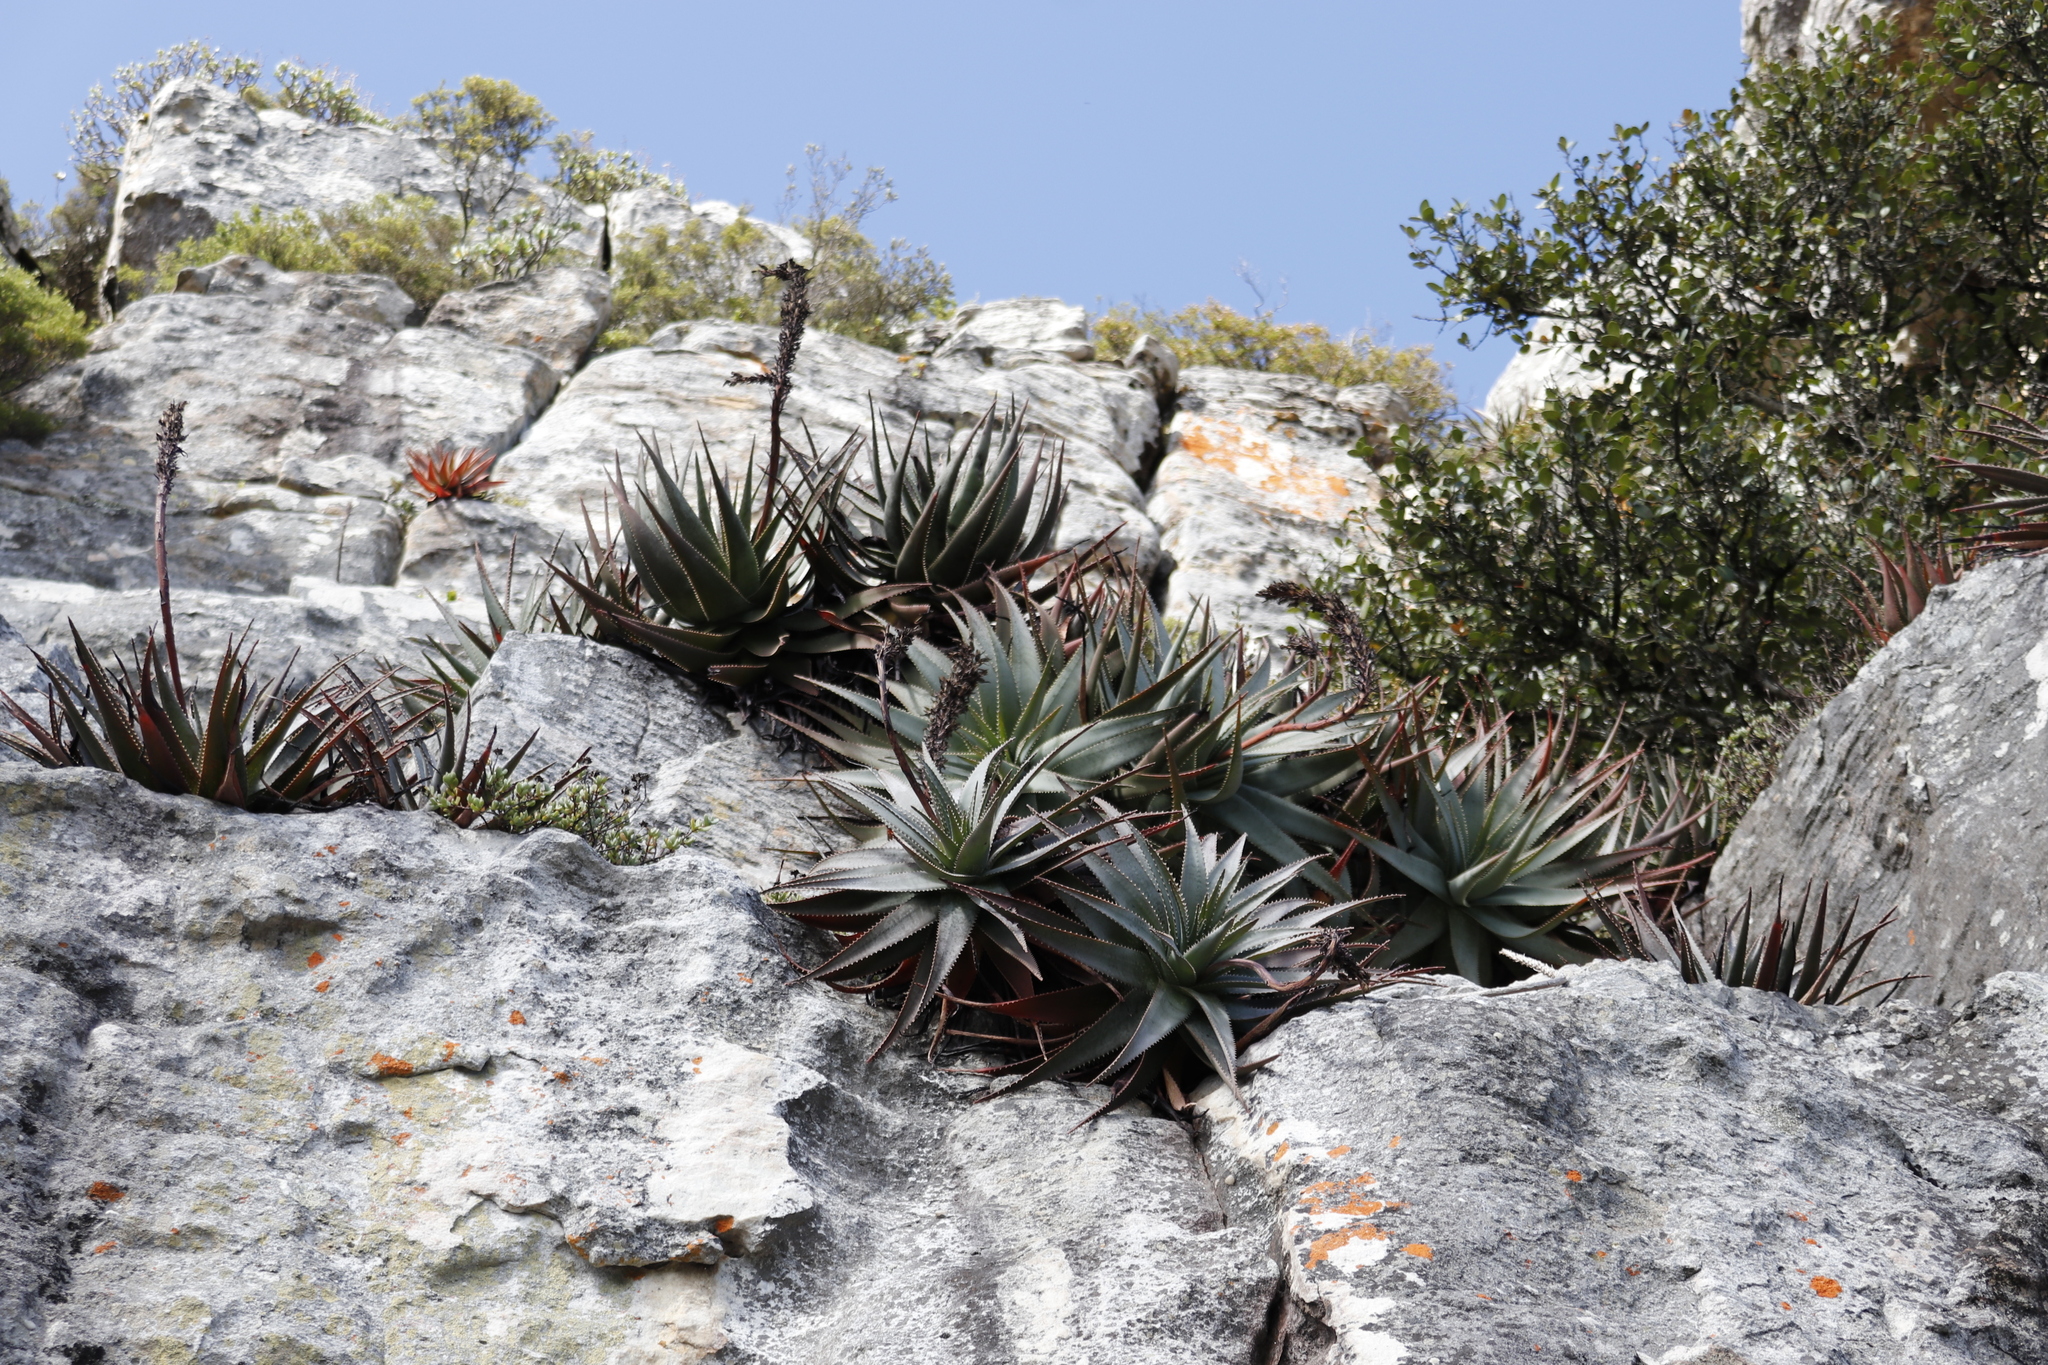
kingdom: Plantae
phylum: Tracheophyta
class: Liliopsida
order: Asparagales
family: Asphodelaceae
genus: Aloe
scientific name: Aloe succotrina
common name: Bombay aloe
